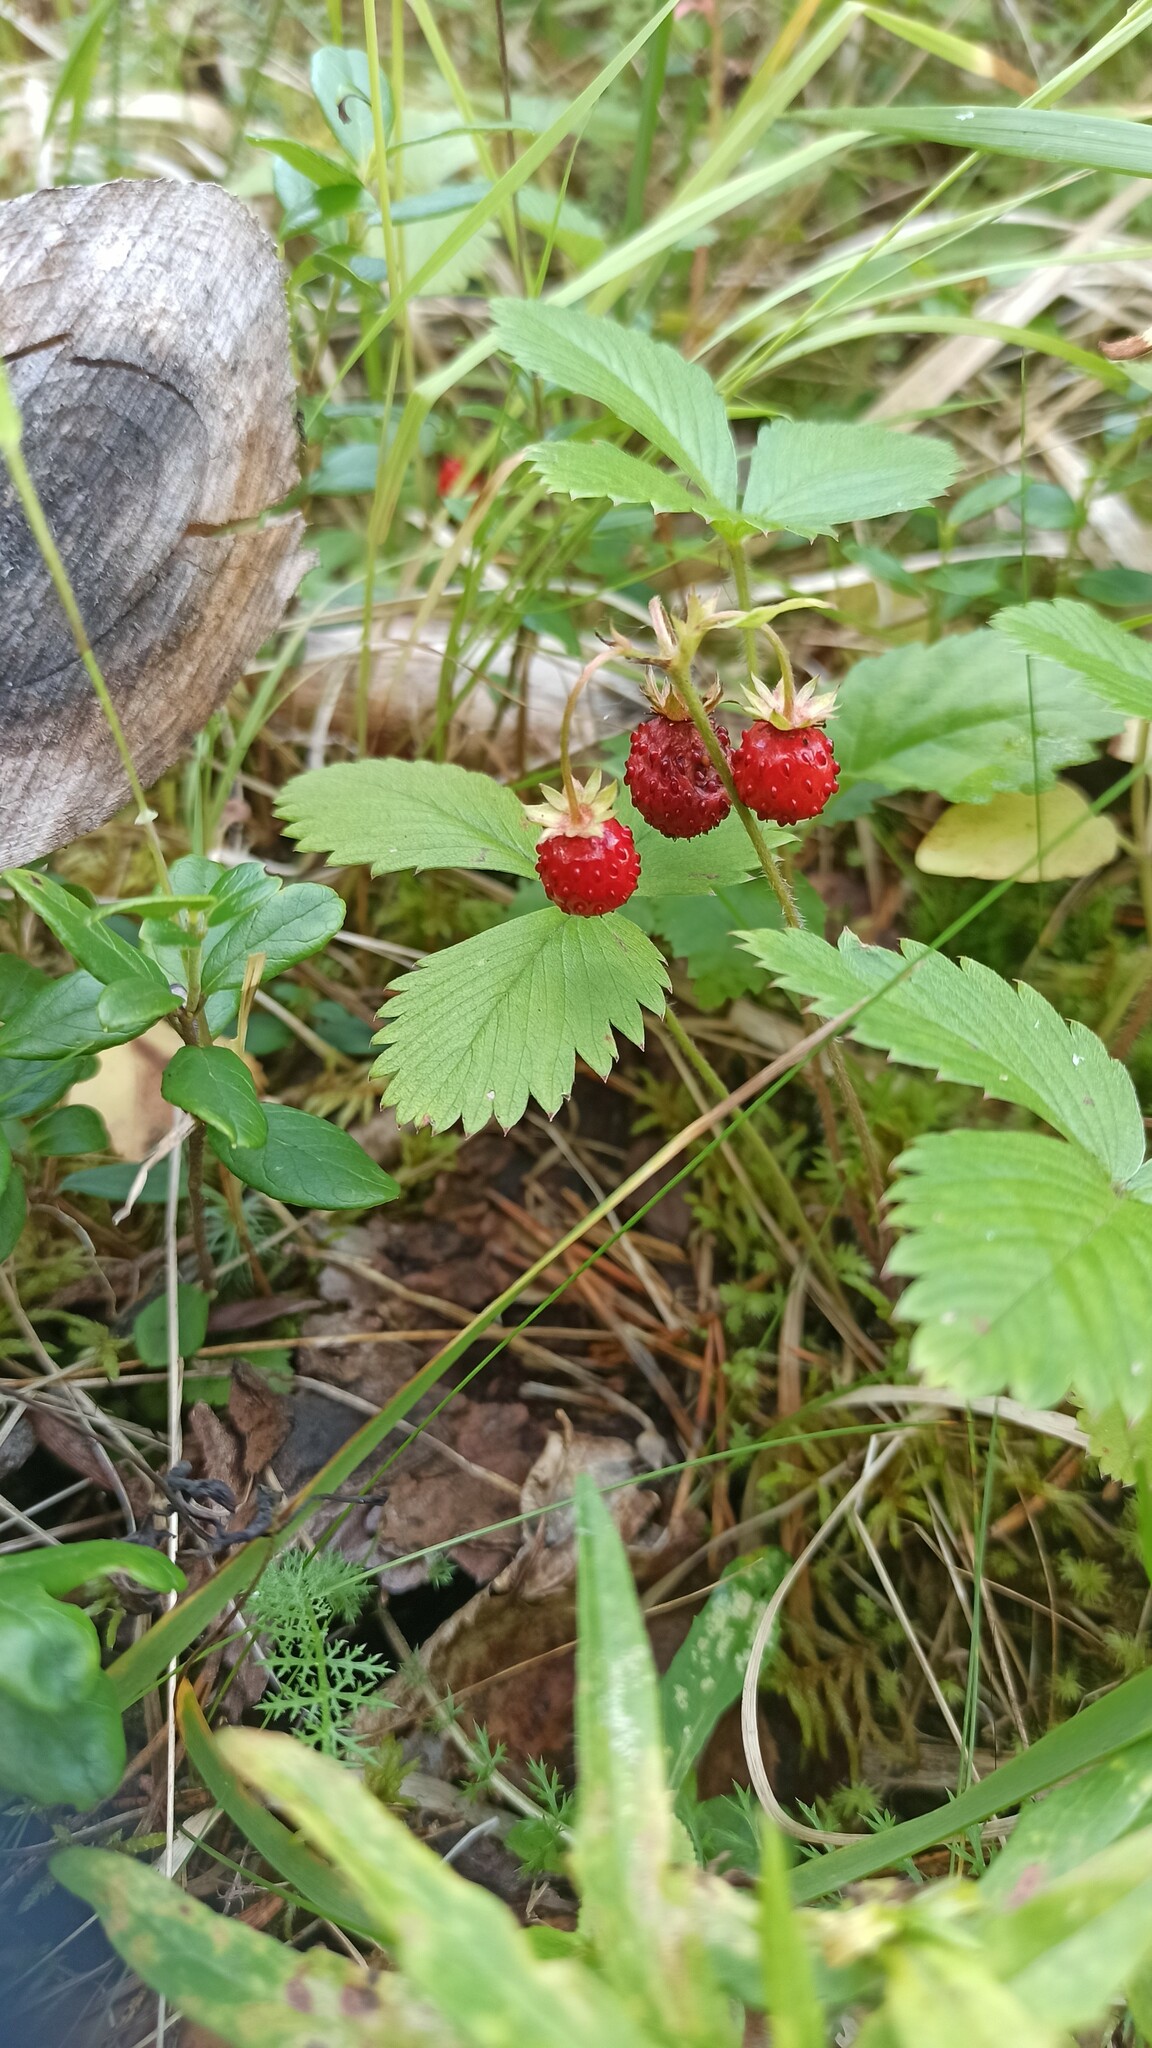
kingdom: Plantae
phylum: Tracheophyta
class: Magnoliopsida
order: Rosales
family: Rosaceae
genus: Fragaria
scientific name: Fragaria vesca
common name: Wild strawberry
